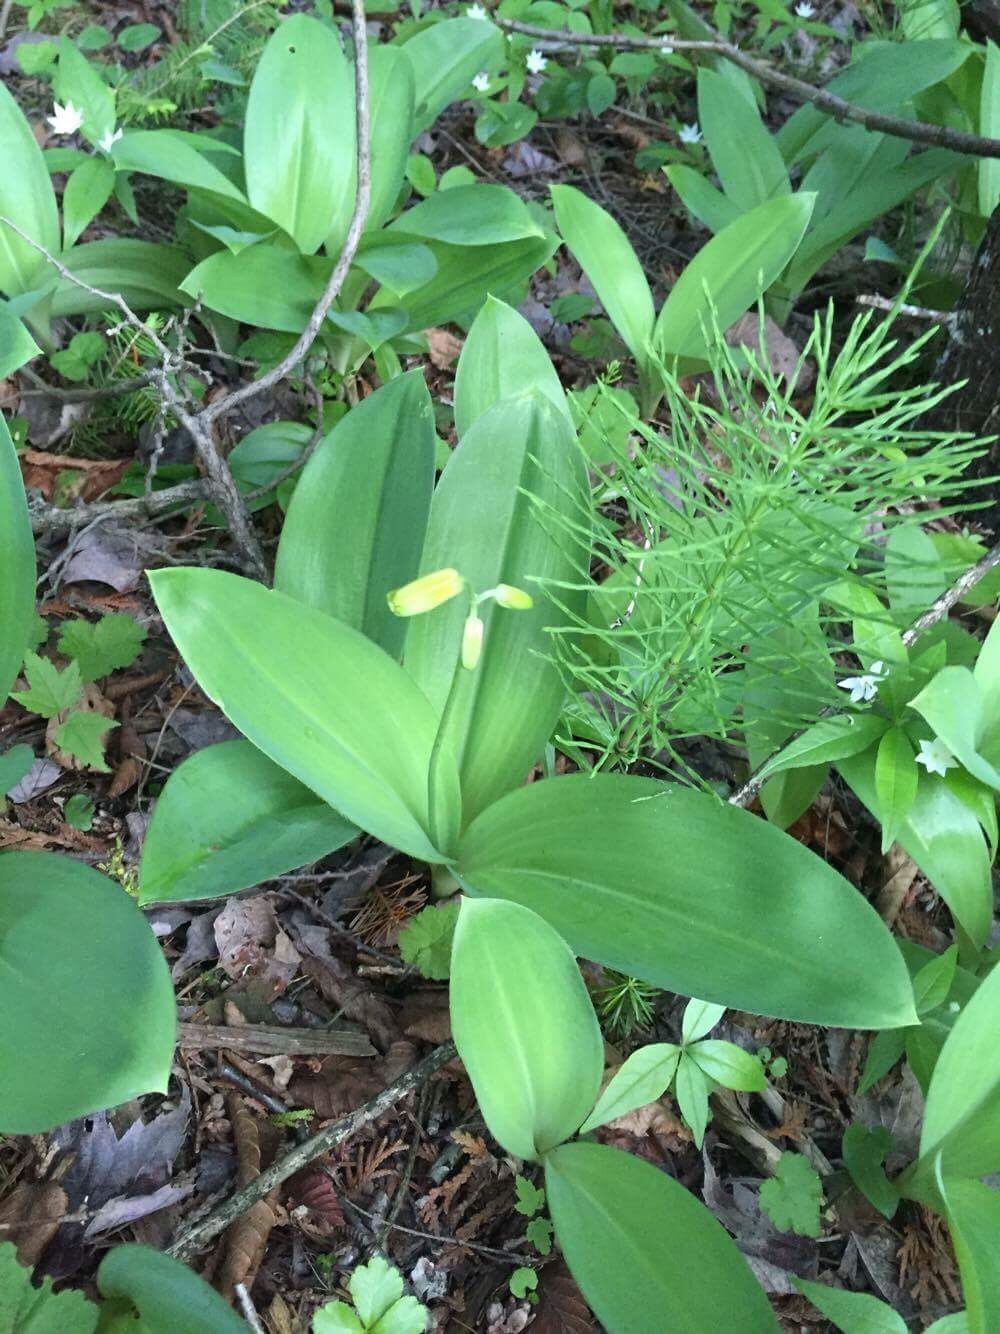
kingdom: Plantae
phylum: Tracheophyta
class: Liliopsida
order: Liliales
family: Liliaceae
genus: Clintonia
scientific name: Clintonia borealis
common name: Yellow clintonia
